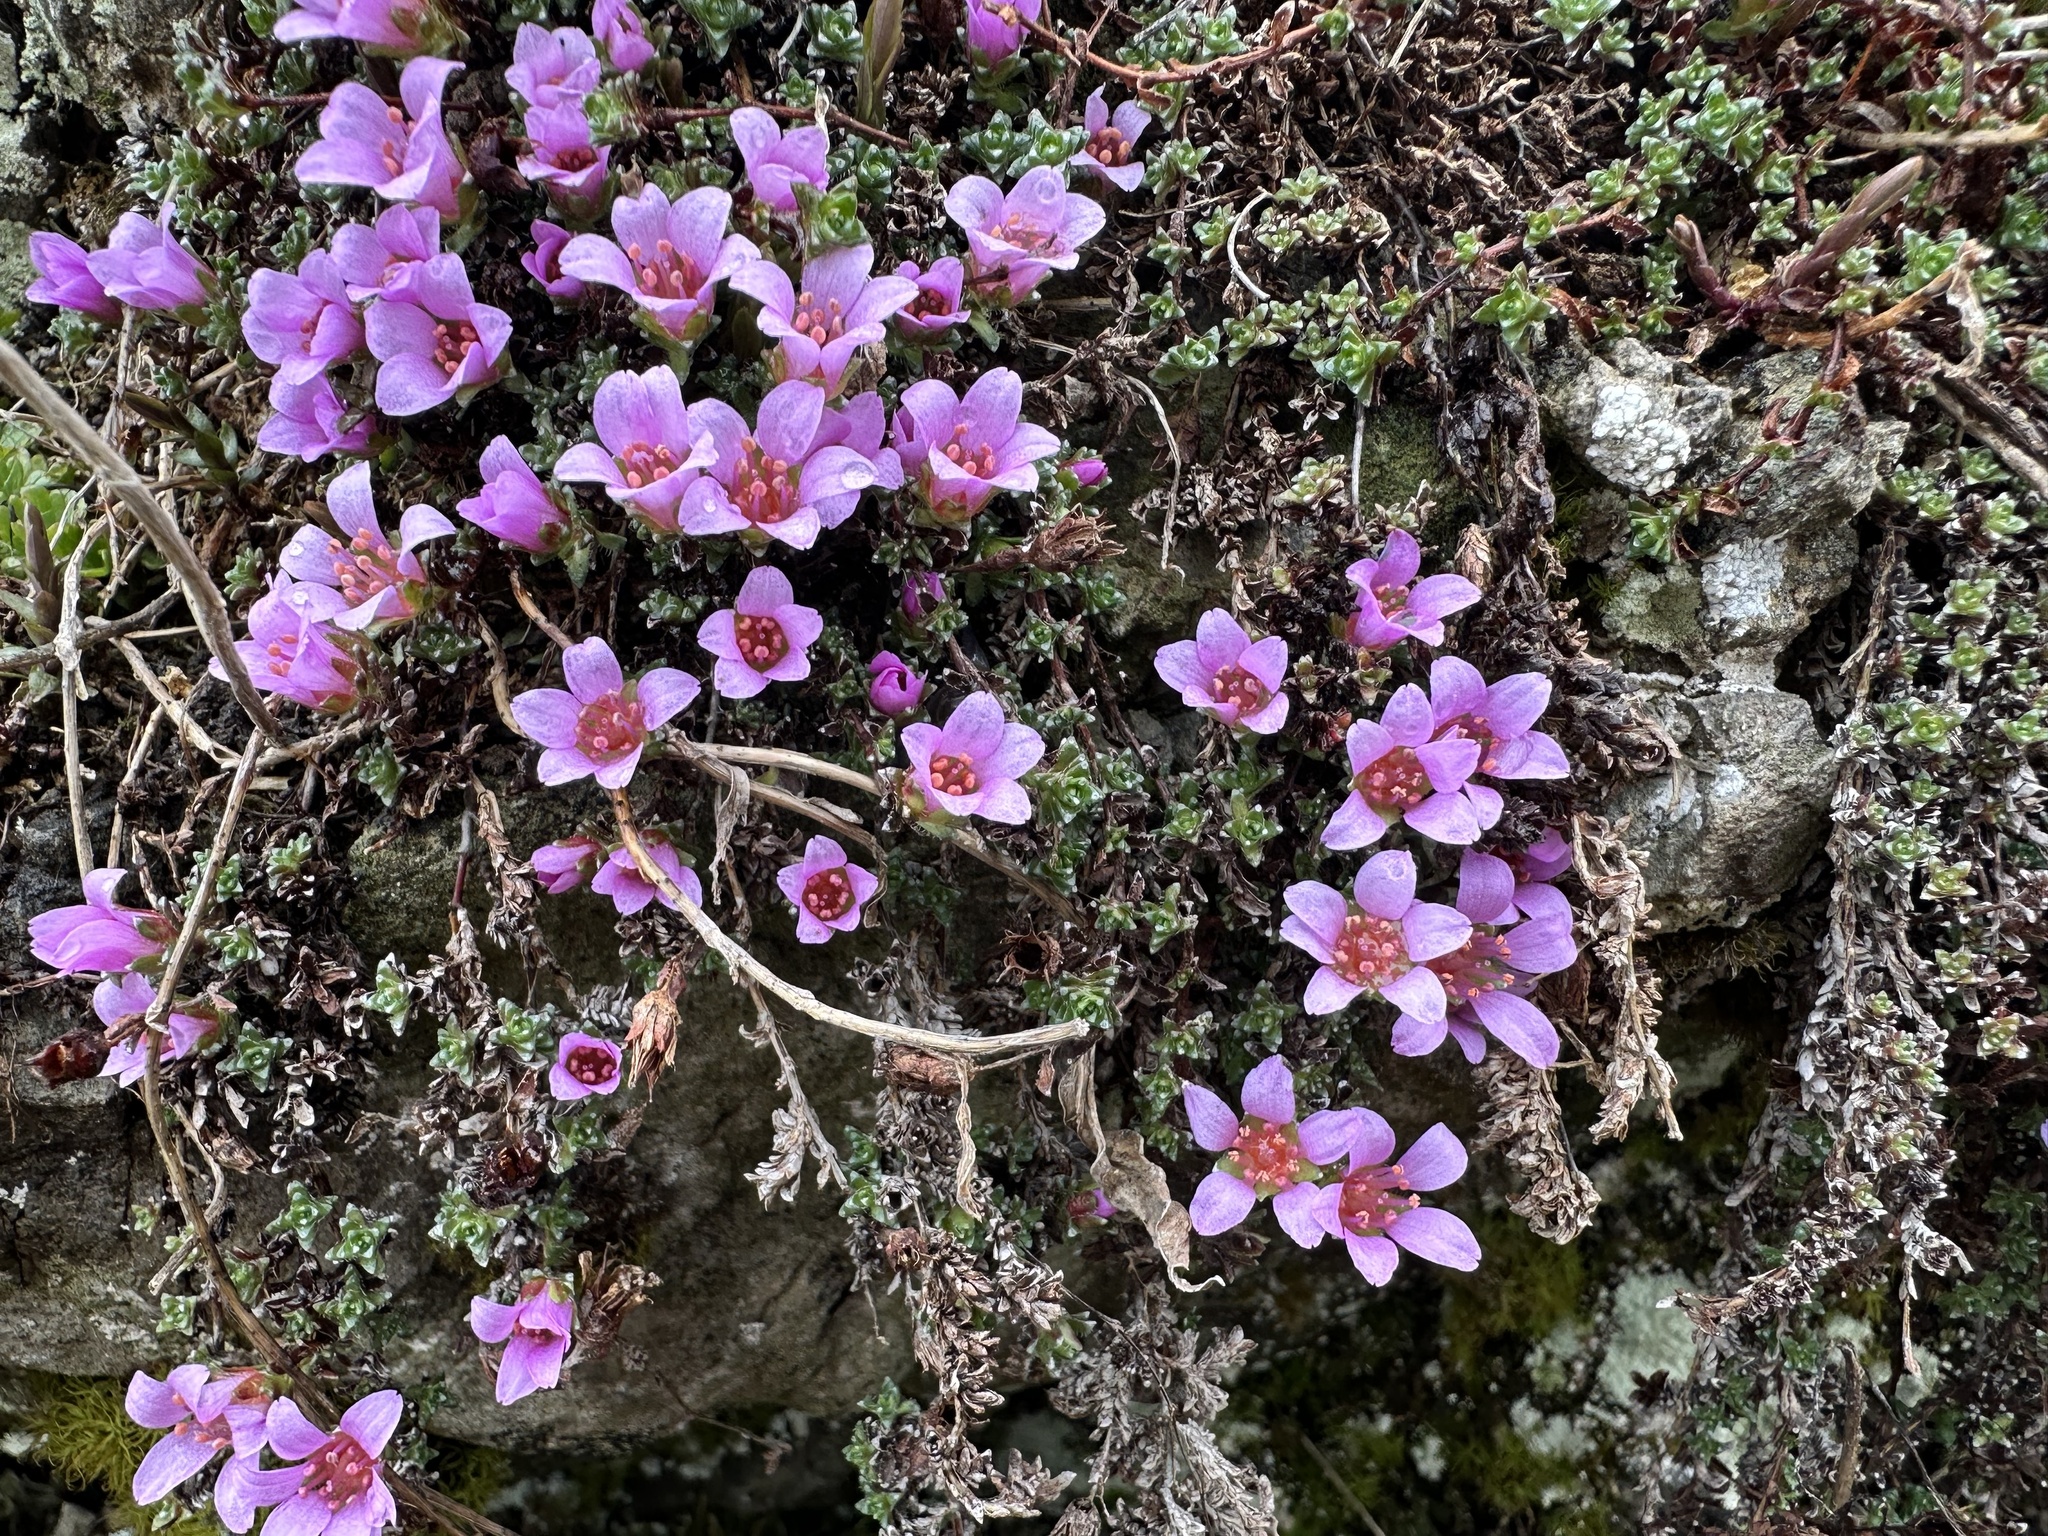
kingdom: Plantae
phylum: Tracheophyta
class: Magnoliopsida
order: Saxifragales
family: Saxifragaceae
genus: Saxifraga
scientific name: Saxifraga oppositifolia
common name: Purple saxifrage
